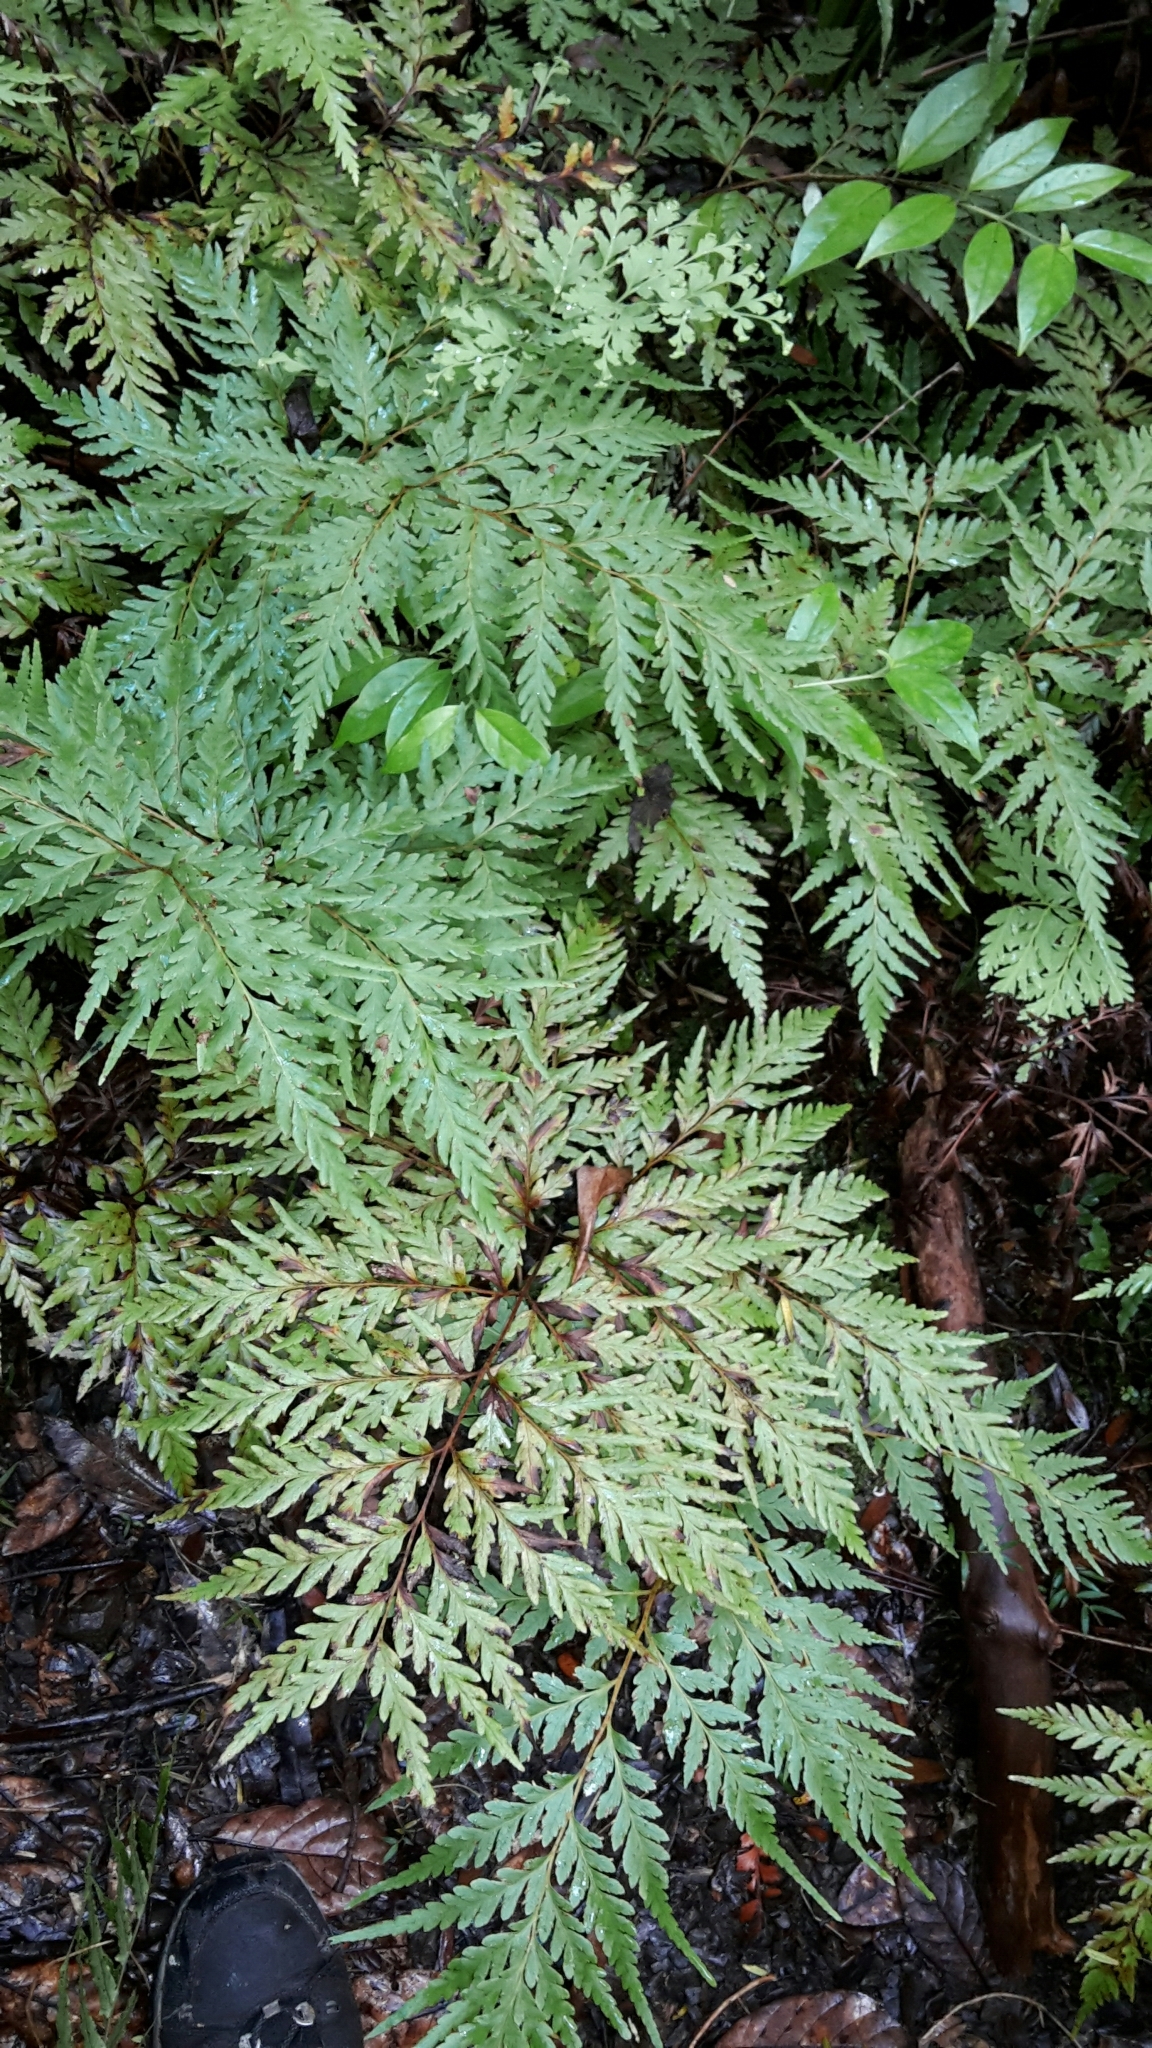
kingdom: Plantae
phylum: Tracheophyta
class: Polypodiopsida
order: Cyatheales
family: Loxsomataceae
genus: Loxsoma
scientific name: Loxsoma cunninghamii
